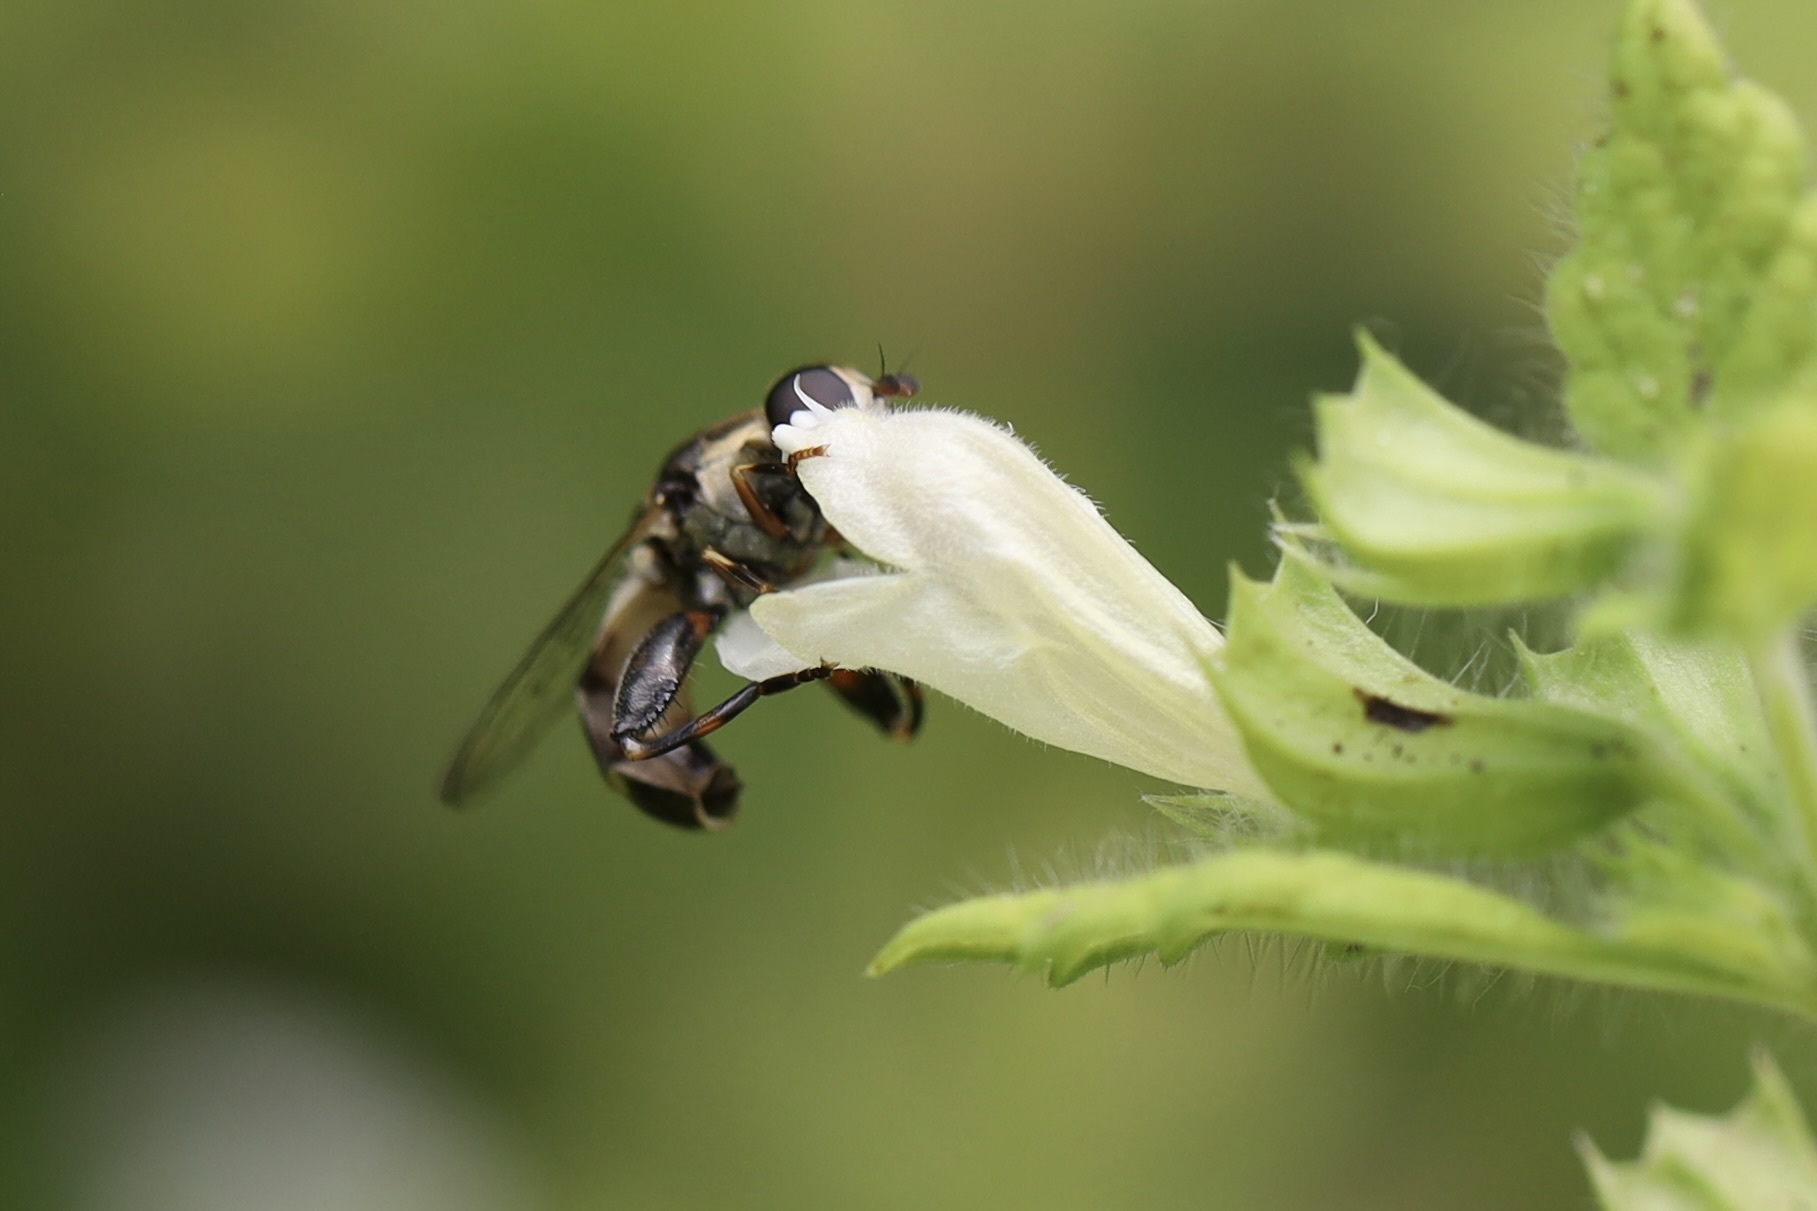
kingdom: Animalia
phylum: Arthropoda
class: Insecta
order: Diptera
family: Syrphidae
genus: Syritta
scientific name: Syritta pipiens
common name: Hover fly
